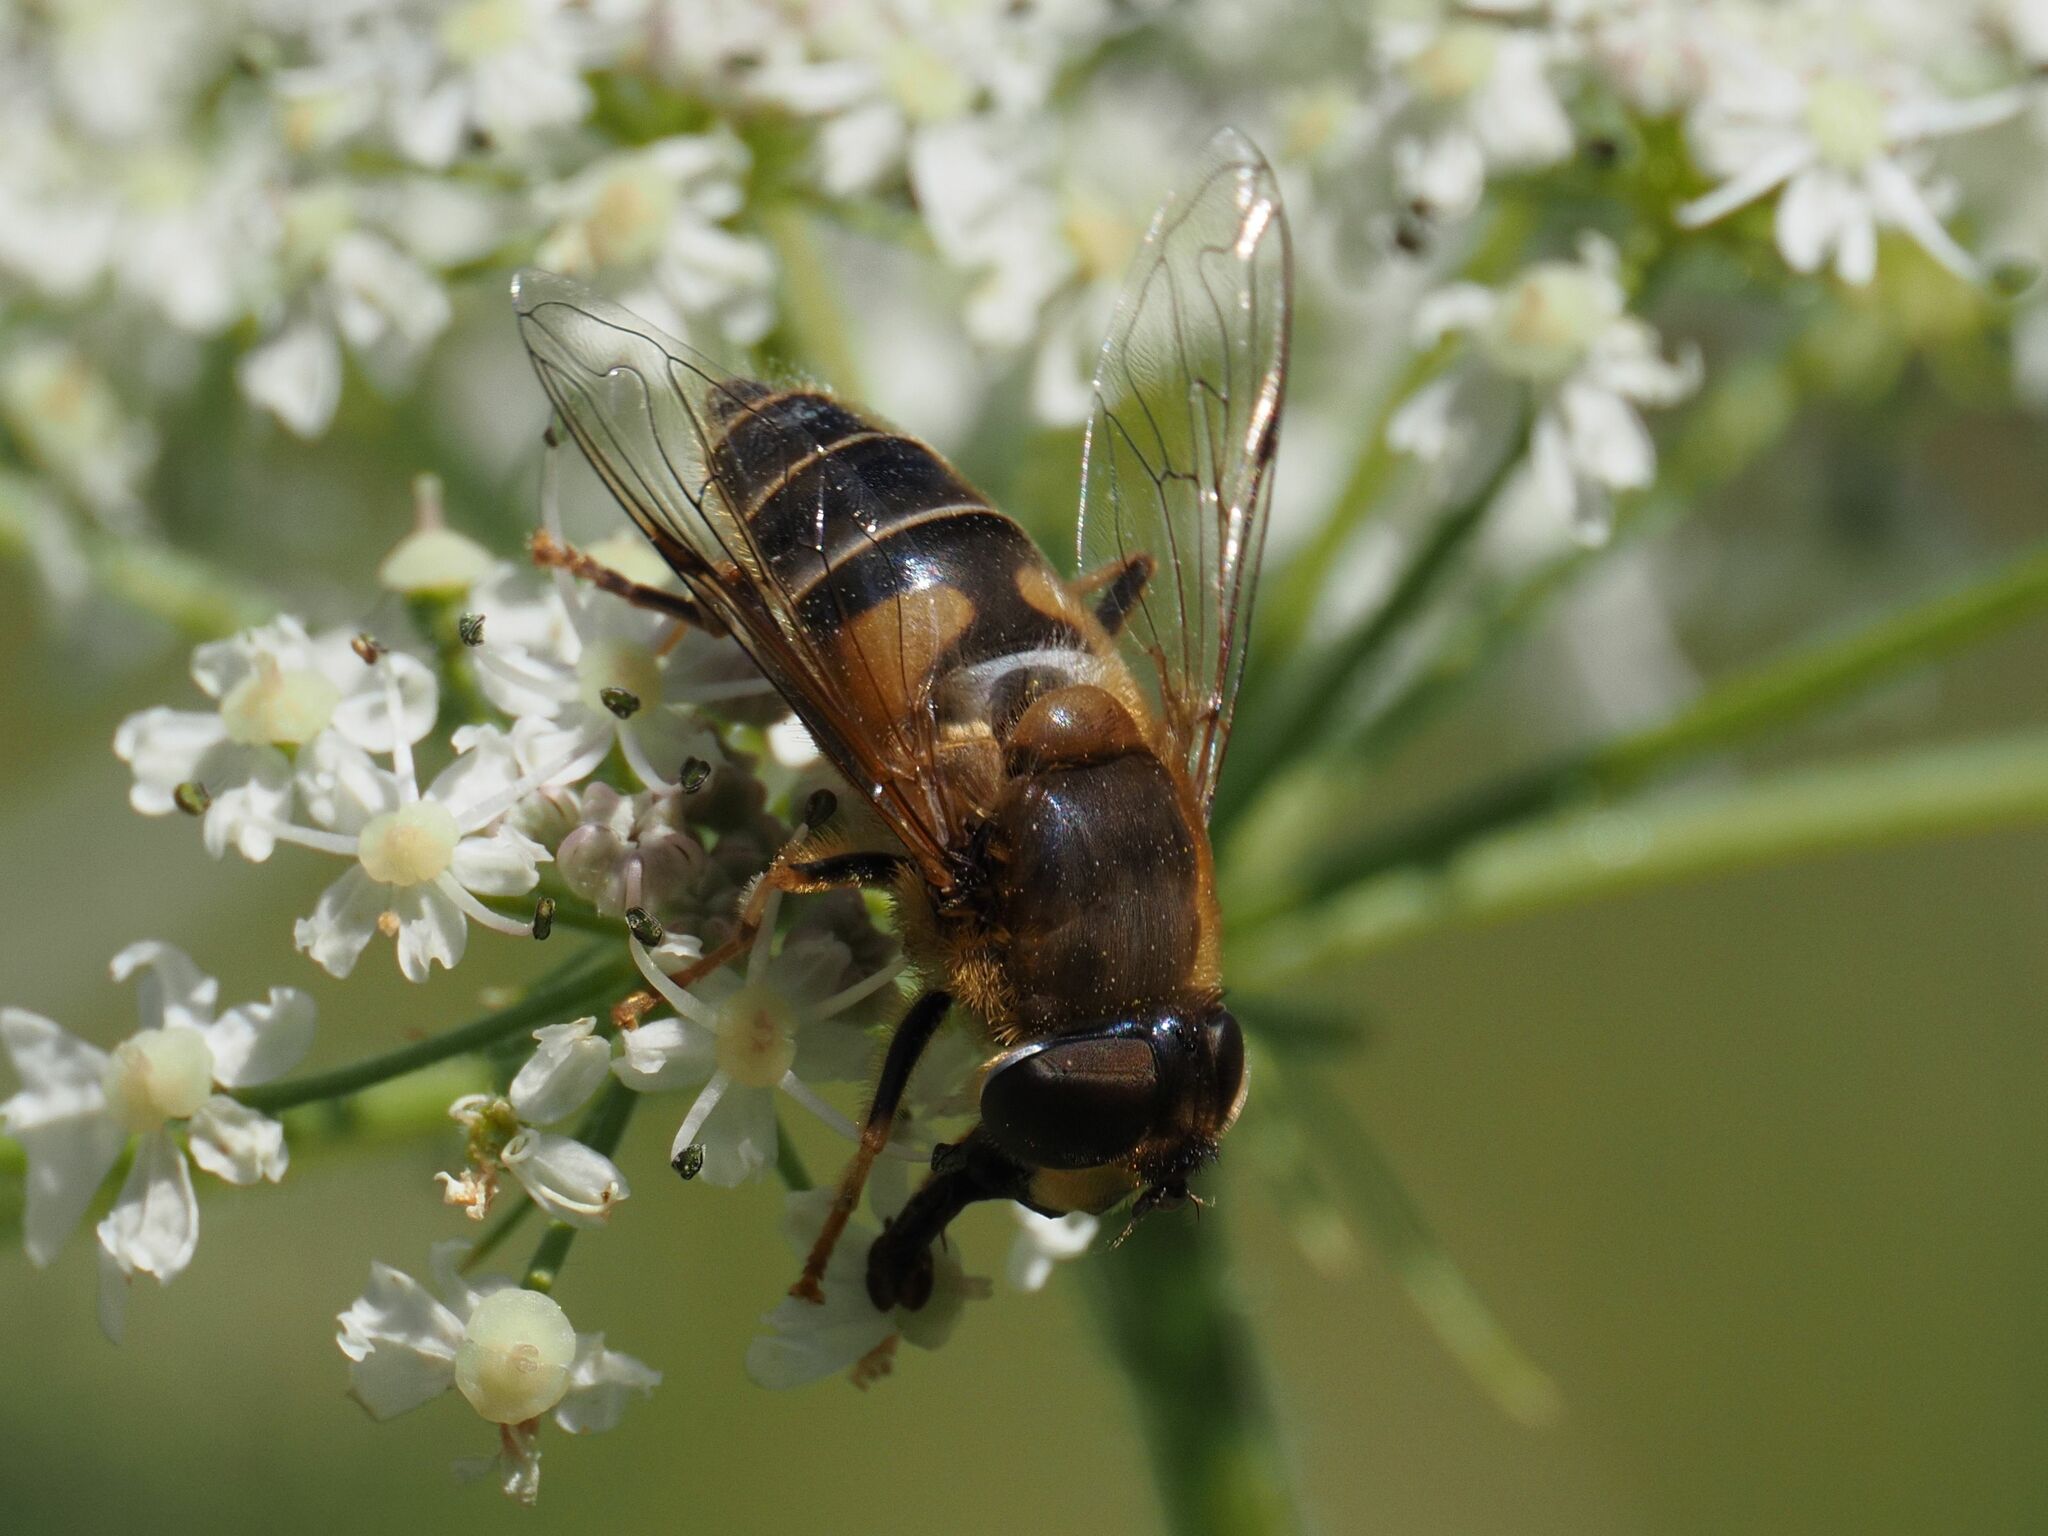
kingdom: Animalia
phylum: Arthropoda
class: Insecta
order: Diptera
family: Syrphidae
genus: Eristalis
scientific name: Eristalis pertinax
